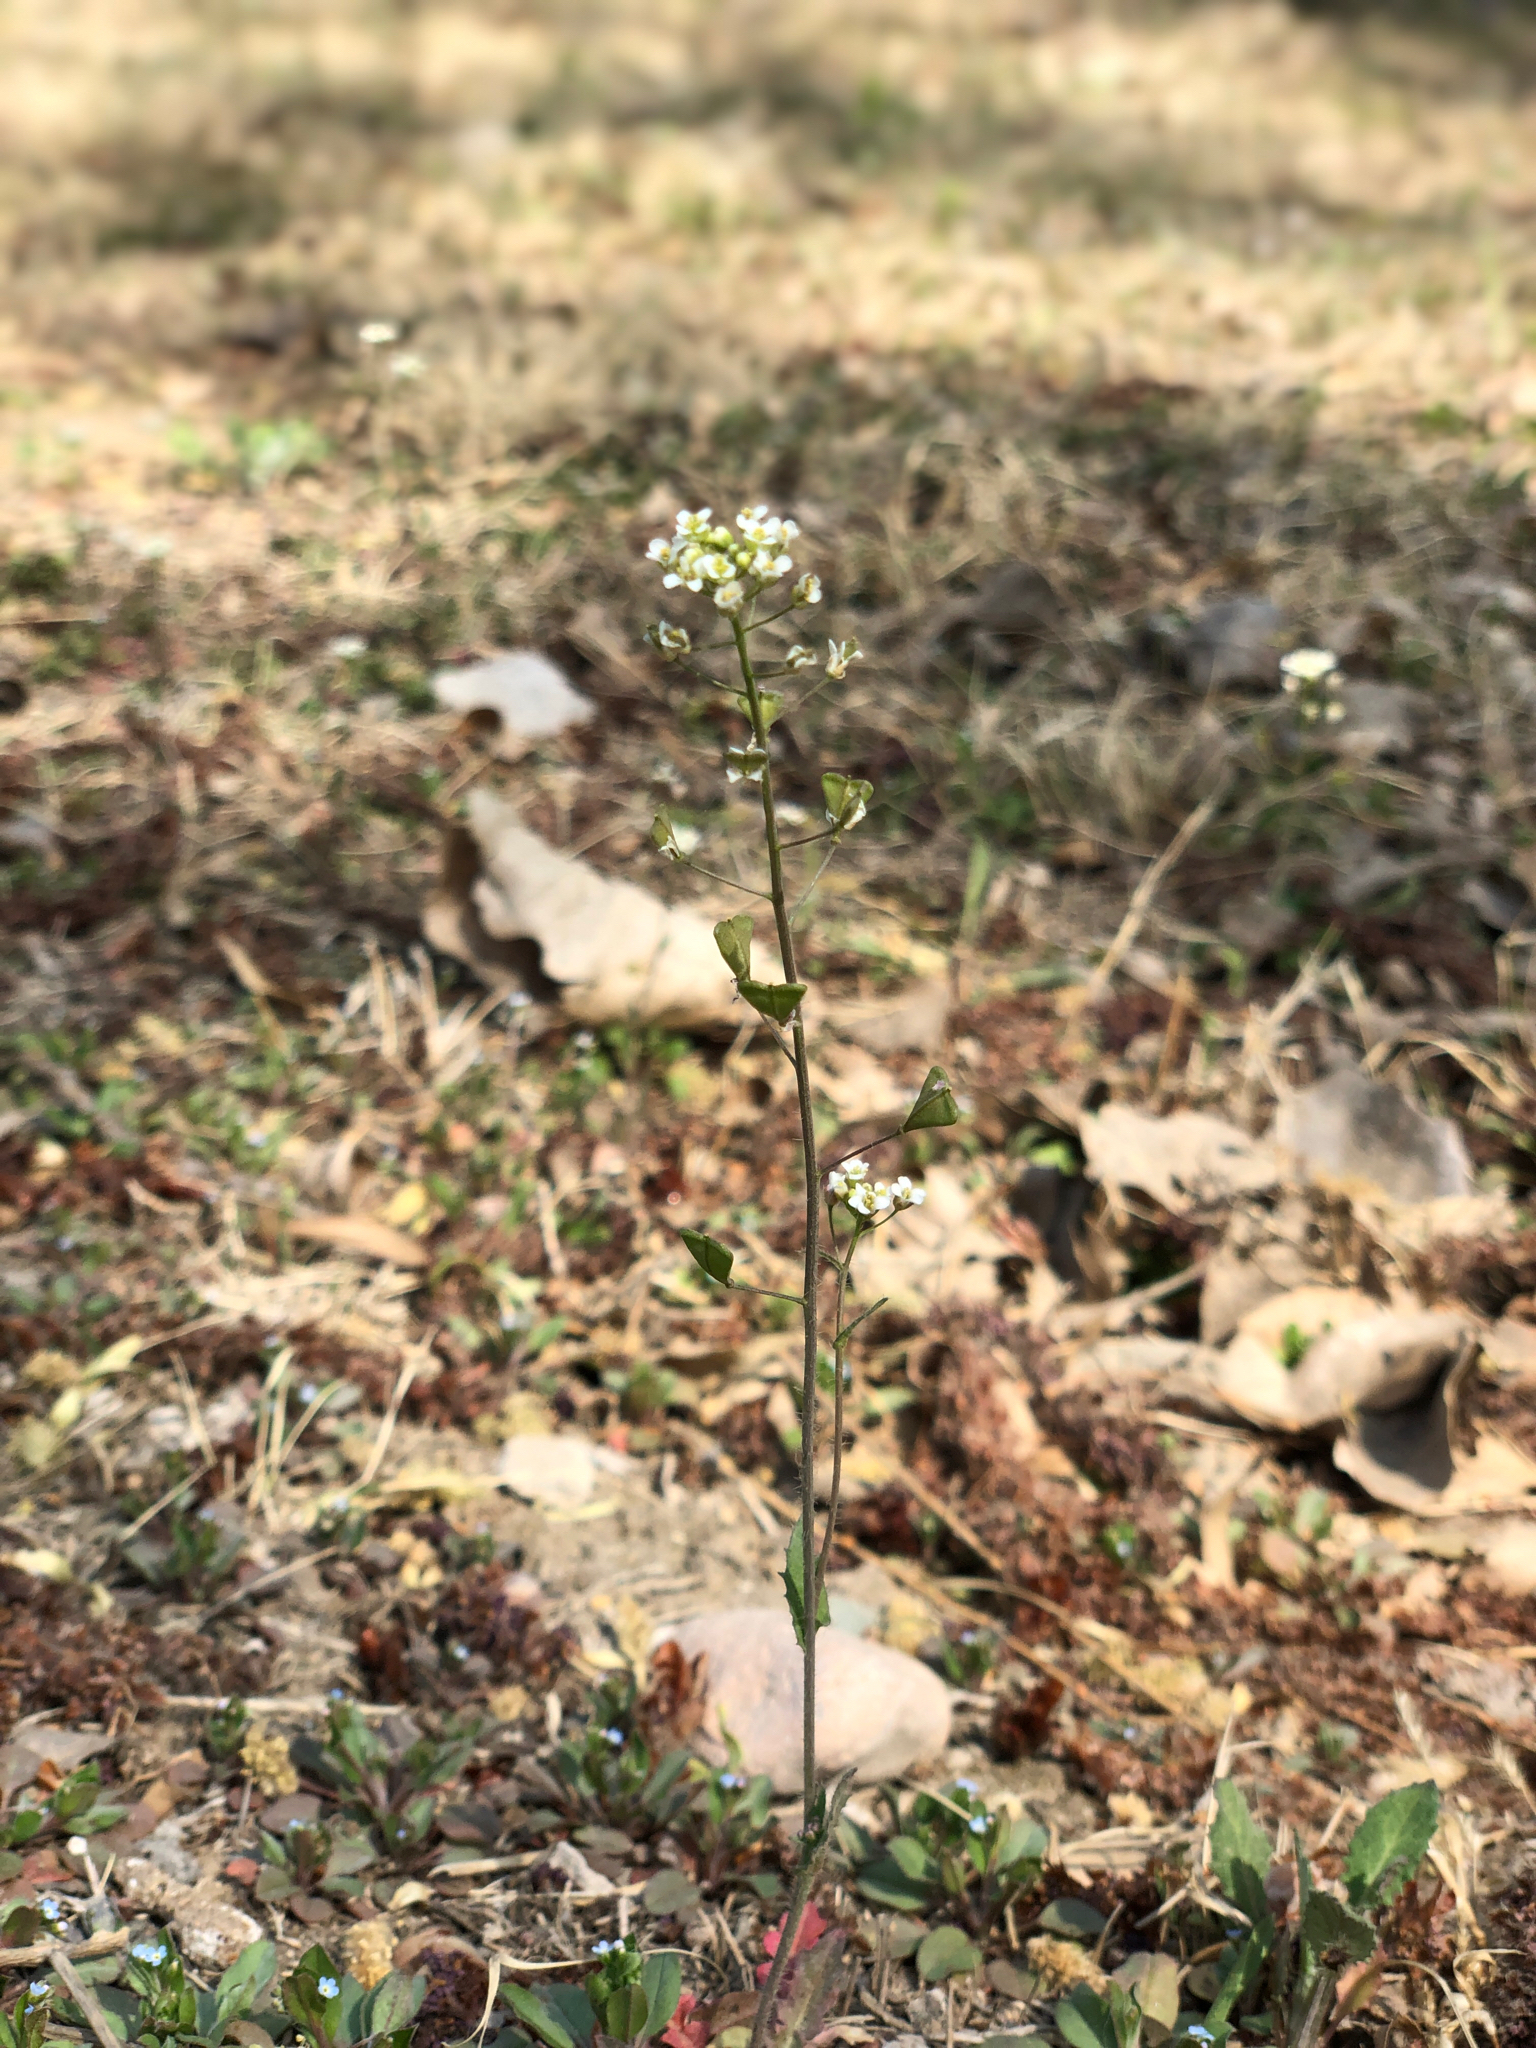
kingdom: Plantae
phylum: Tracheophyta
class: Magnoliopsida
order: Brassicales
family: Brassicaceae
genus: Capsella
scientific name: Capsella bursa-pastoris
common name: Shepherd's purse
